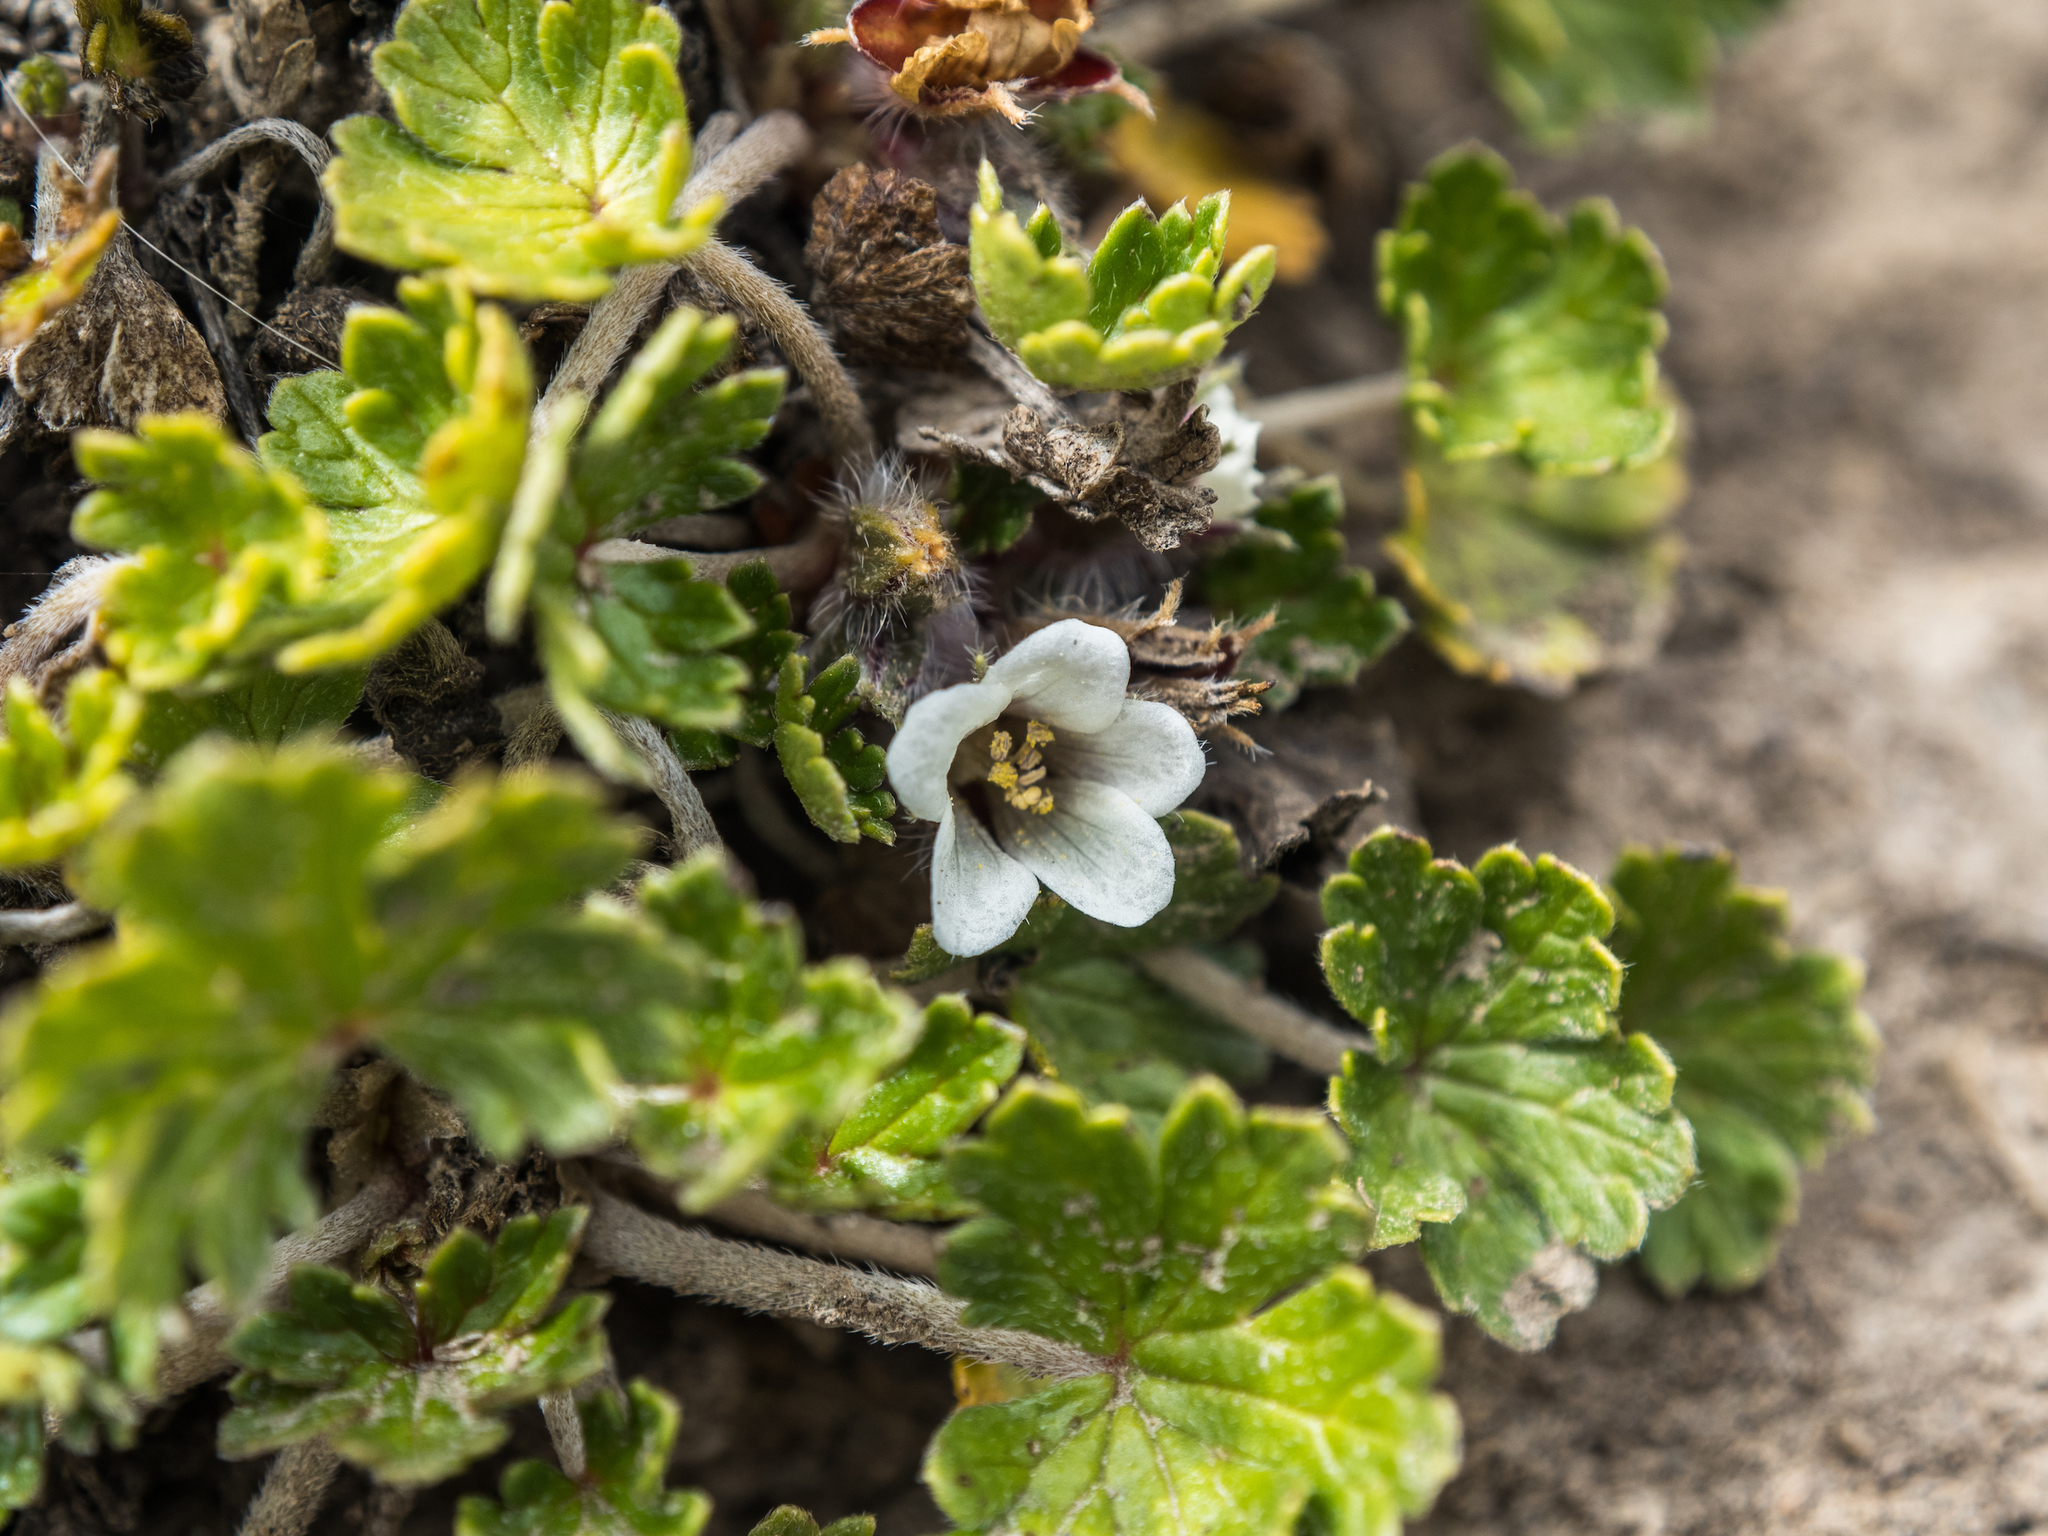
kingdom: Plantae
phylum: Tracheophyta
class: Magnoliopsida
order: Geraniales
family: Geraniaceae
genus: Geranium
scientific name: Geranium brevicaule
